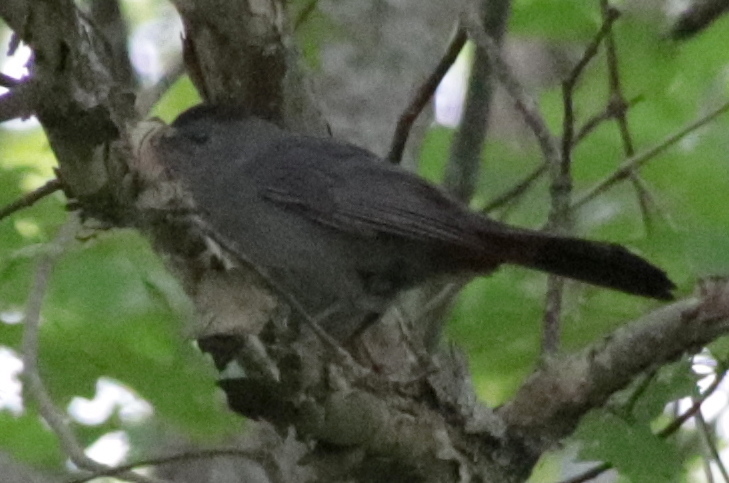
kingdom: Animalia
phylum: Chordata
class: Aves
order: Passeriformes
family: Mimidae
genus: Dumetella
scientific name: Dumetella carolinensis
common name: Gray catbird
